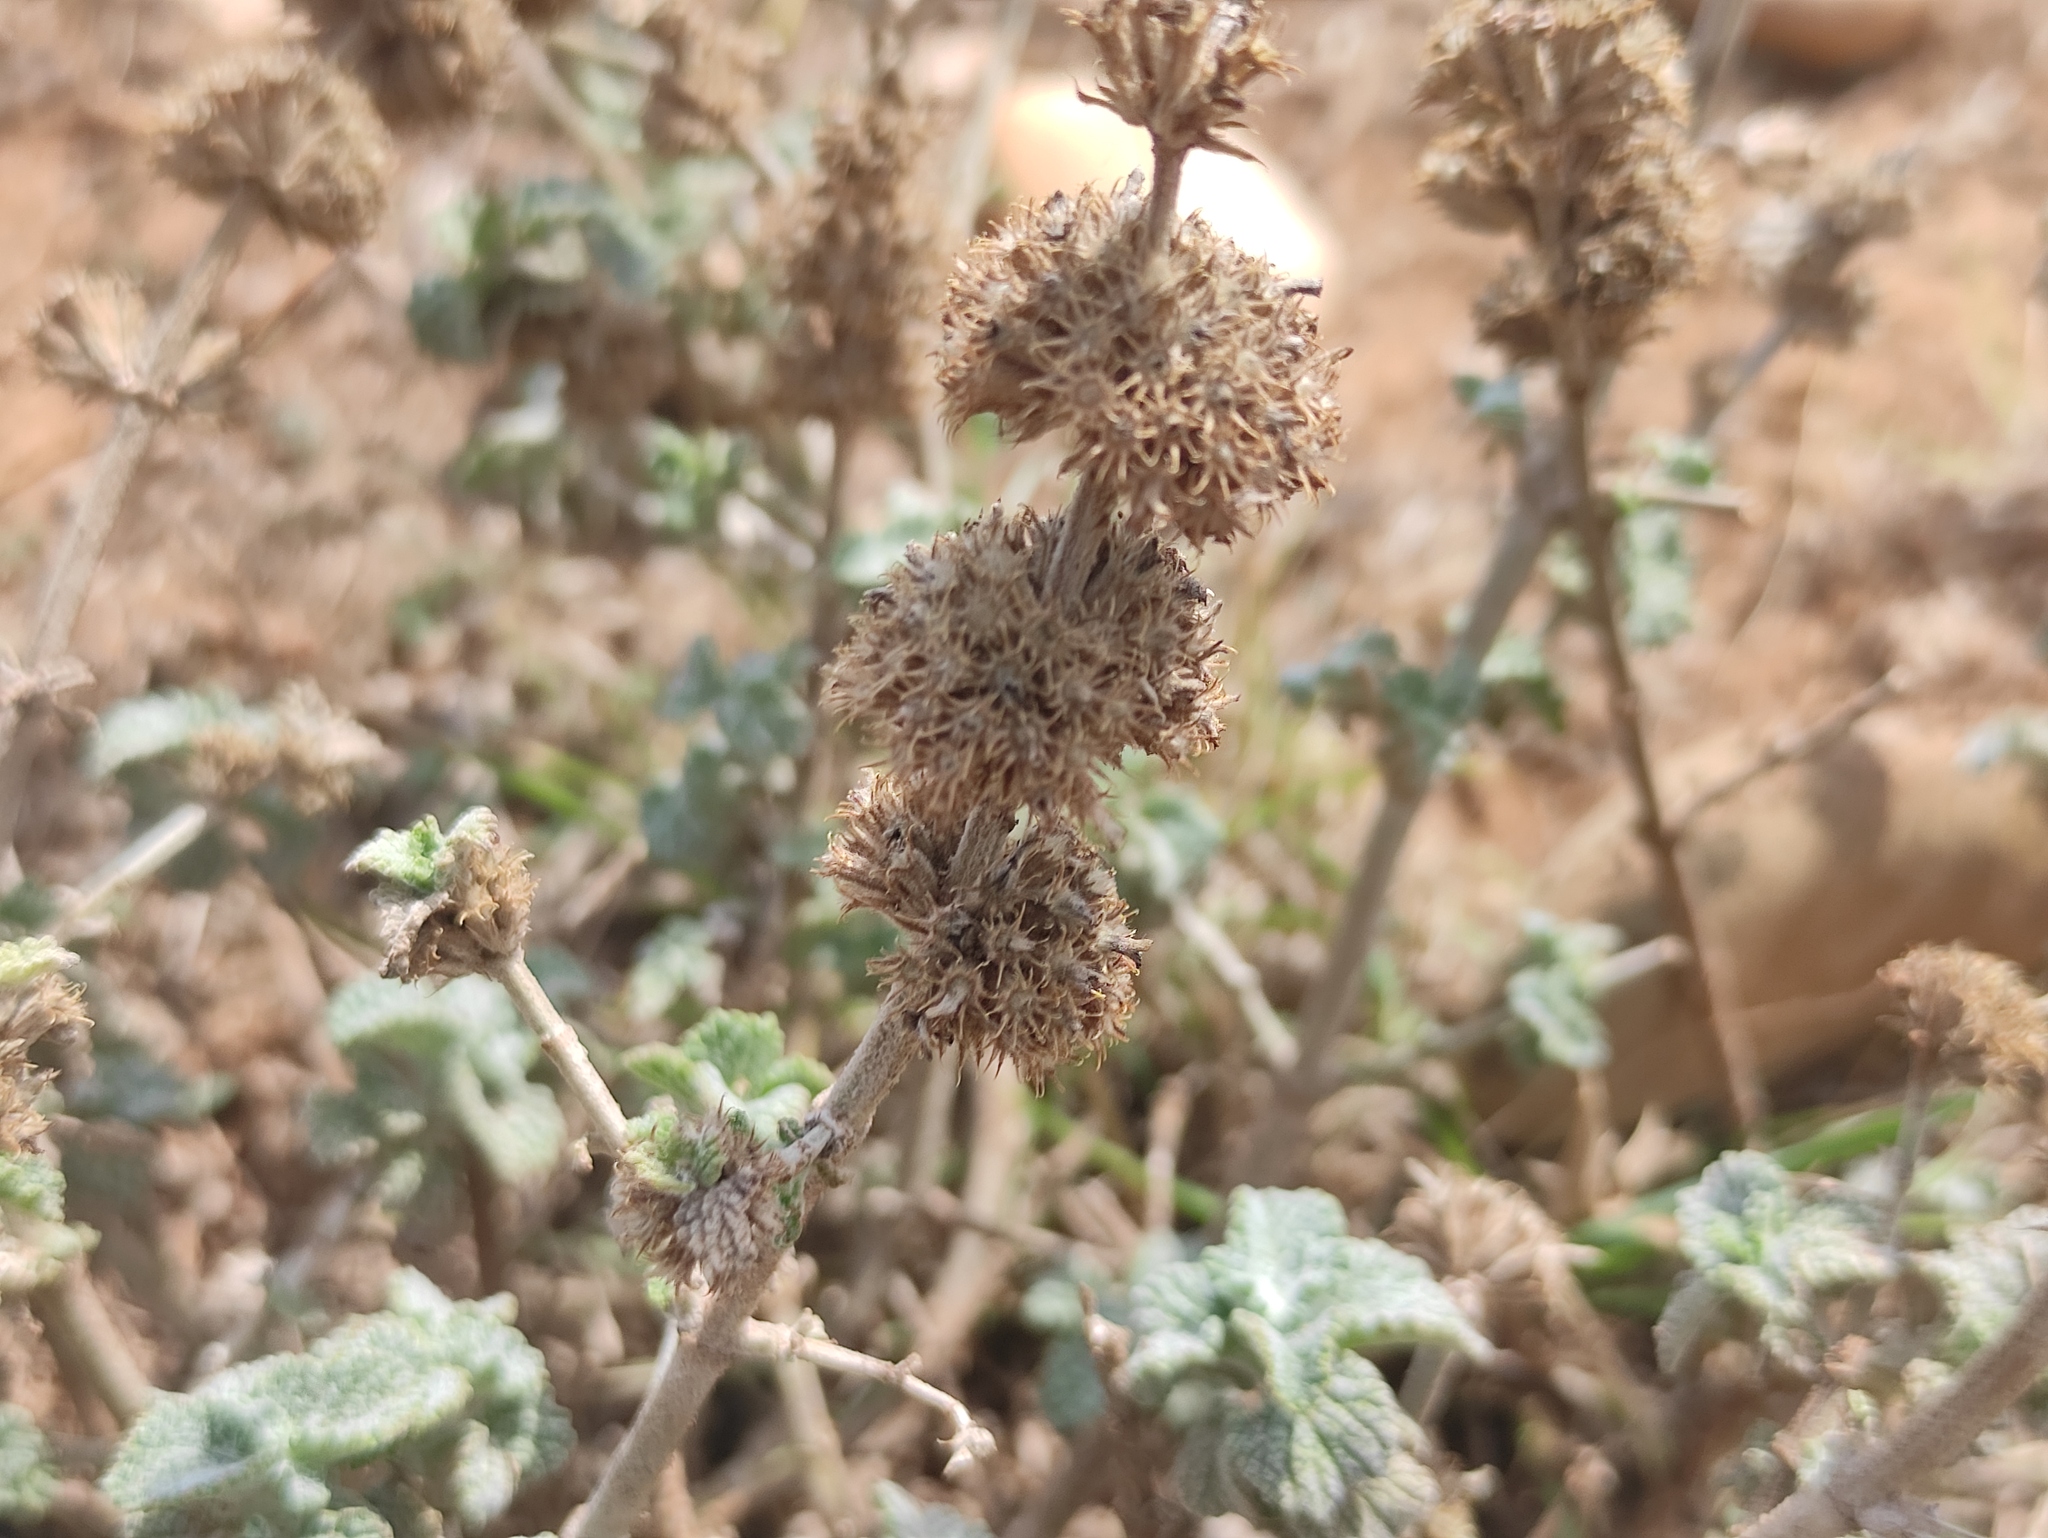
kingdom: Plantae
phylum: Tracheophyta
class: Magnoliopsida
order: Lamiales
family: Lamiaceae
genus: Marrubium
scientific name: Marrubium vulgare
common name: Horehound
